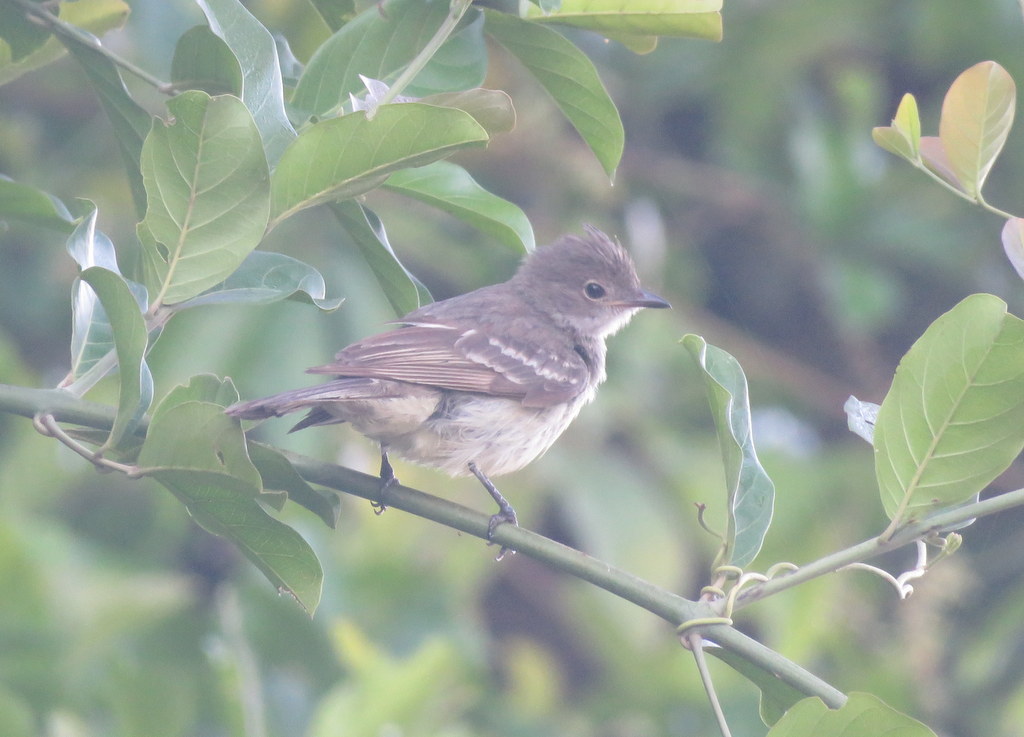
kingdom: Animalia
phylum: Chordata
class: Aves
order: Passeriformes
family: Tyrannidae
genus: Elaenia
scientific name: Elaenia flavogaster
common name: Yellow-bellied elaenia
